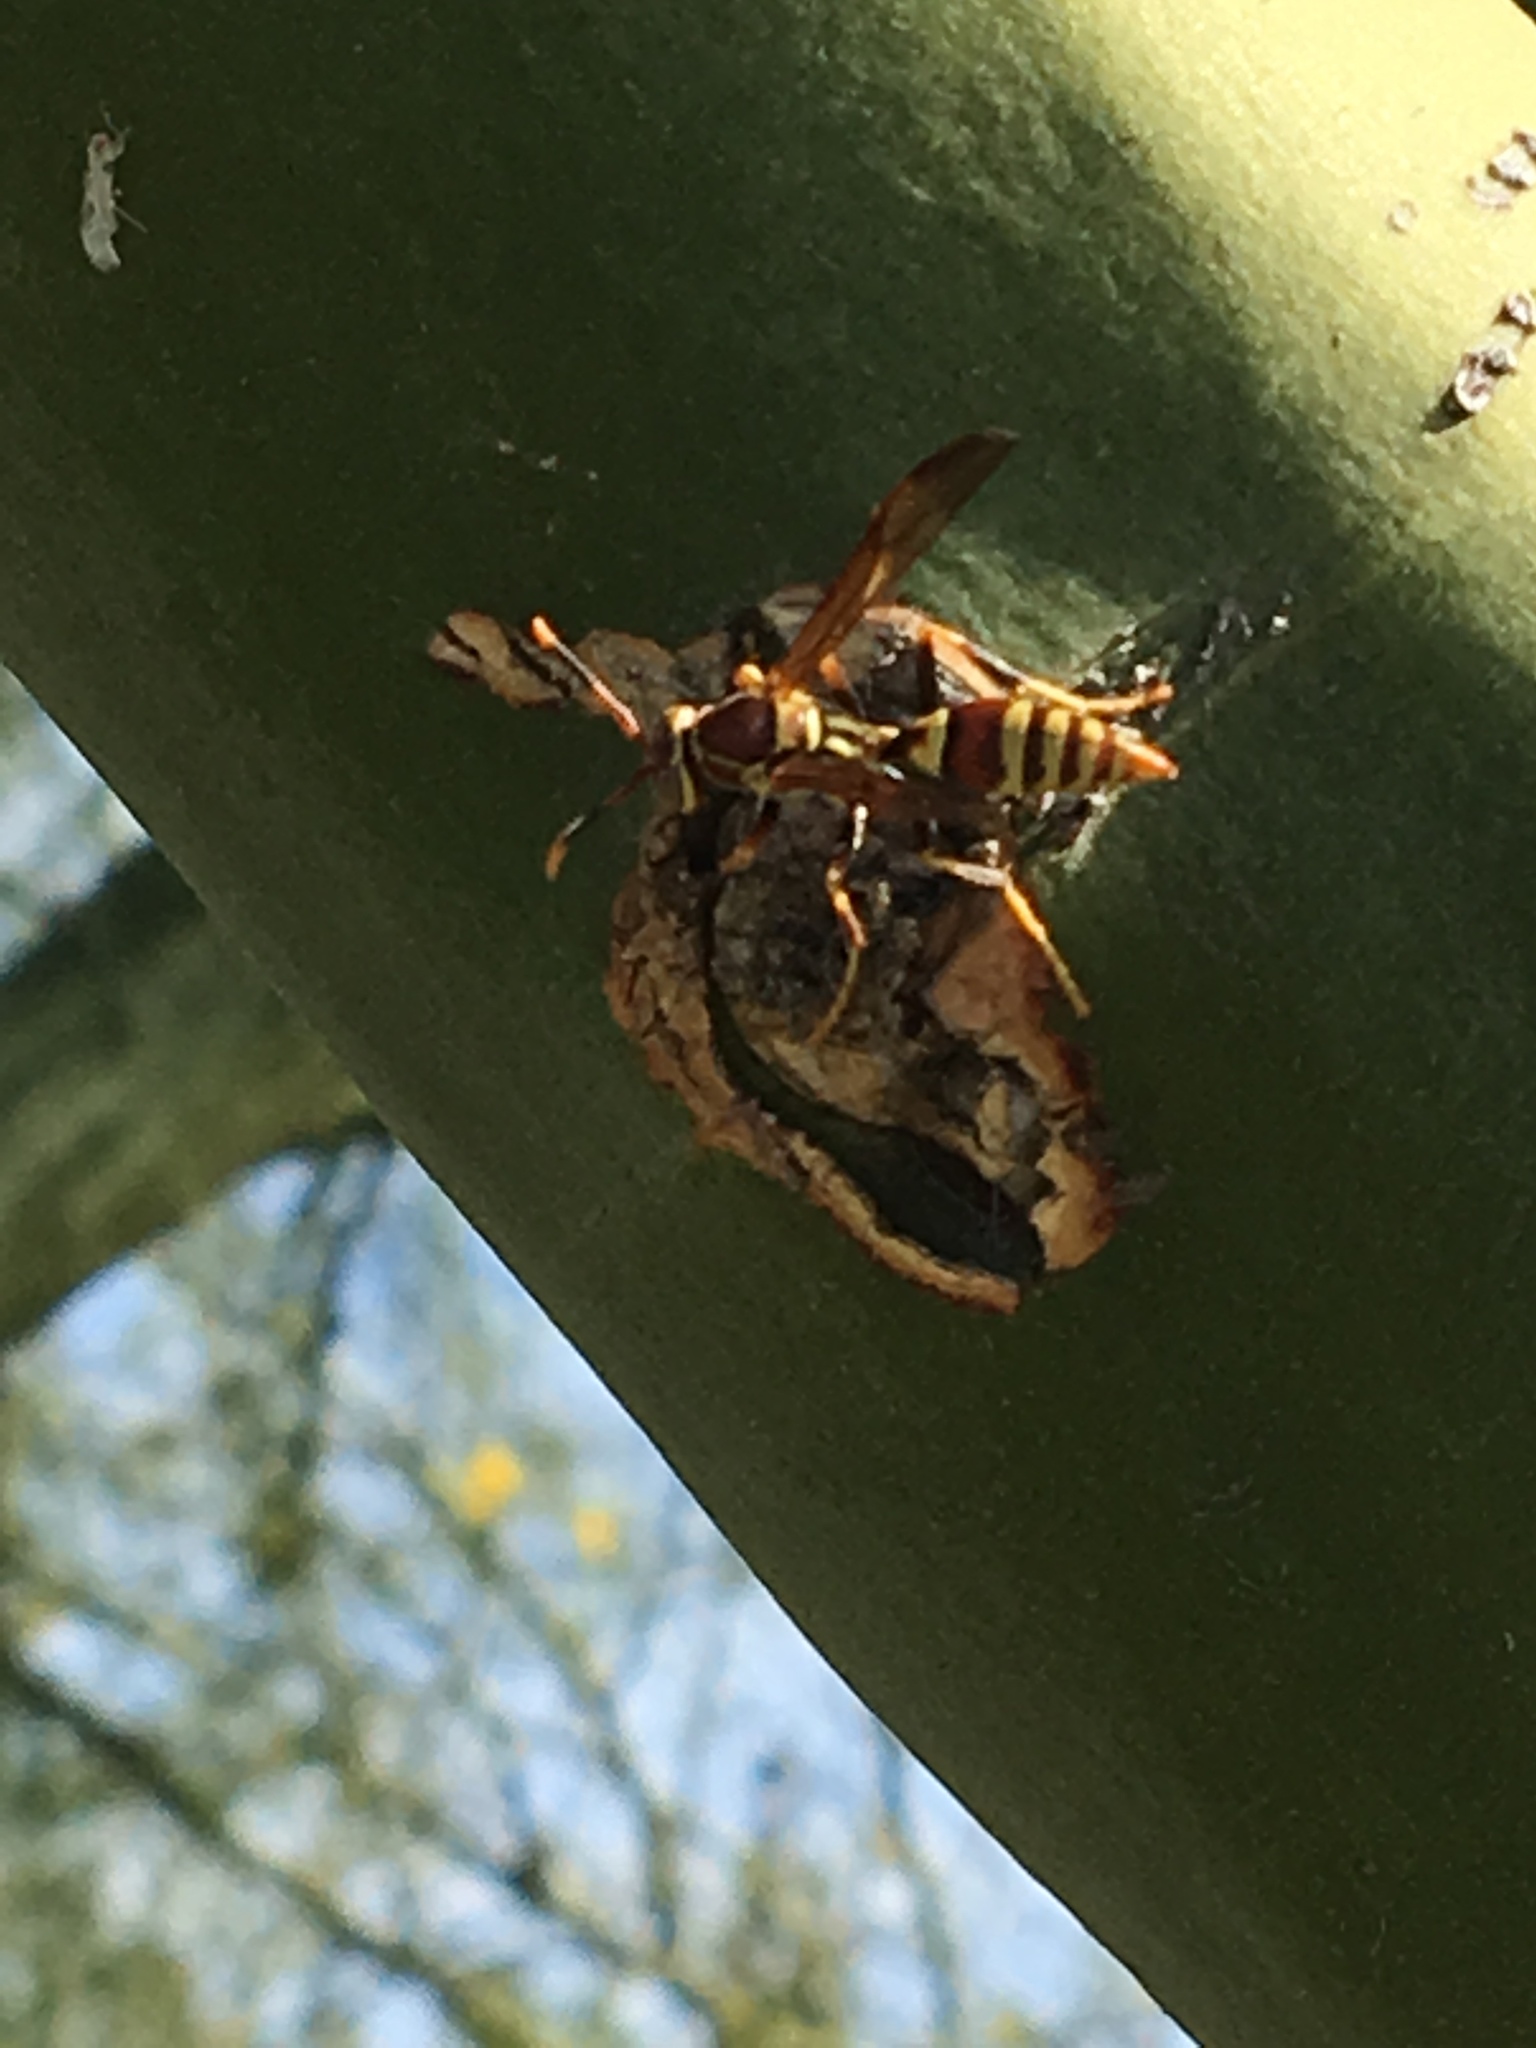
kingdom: Animalia
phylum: Arthropoda
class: Insecta
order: Hymenoptera
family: Eumenidae
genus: Polistes
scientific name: Polistes exclamans
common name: Paper wasp
